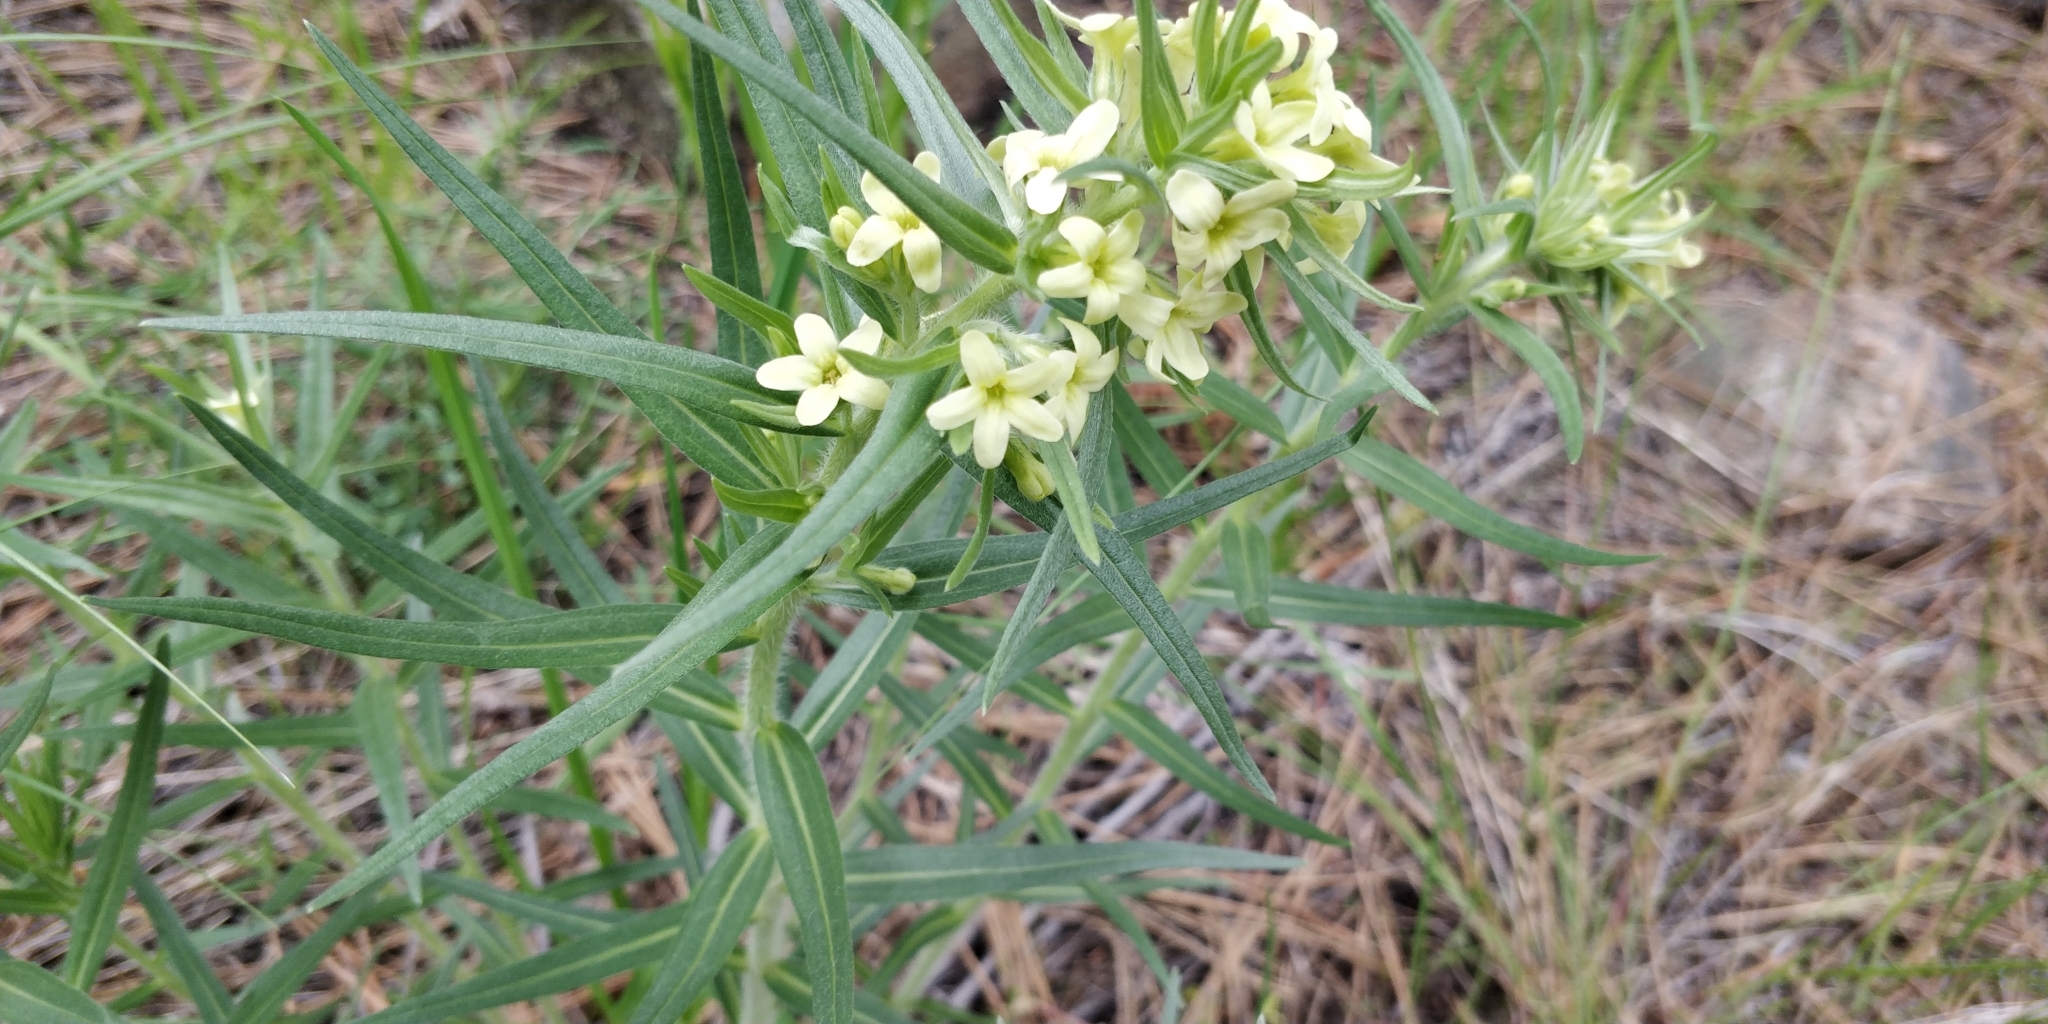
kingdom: Plantae
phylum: Tracheophyta
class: Magnoliopsida
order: Boraginales
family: Boraginaceae
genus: Lithospermum
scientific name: Lithospermum ruderale
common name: Western gromwell
